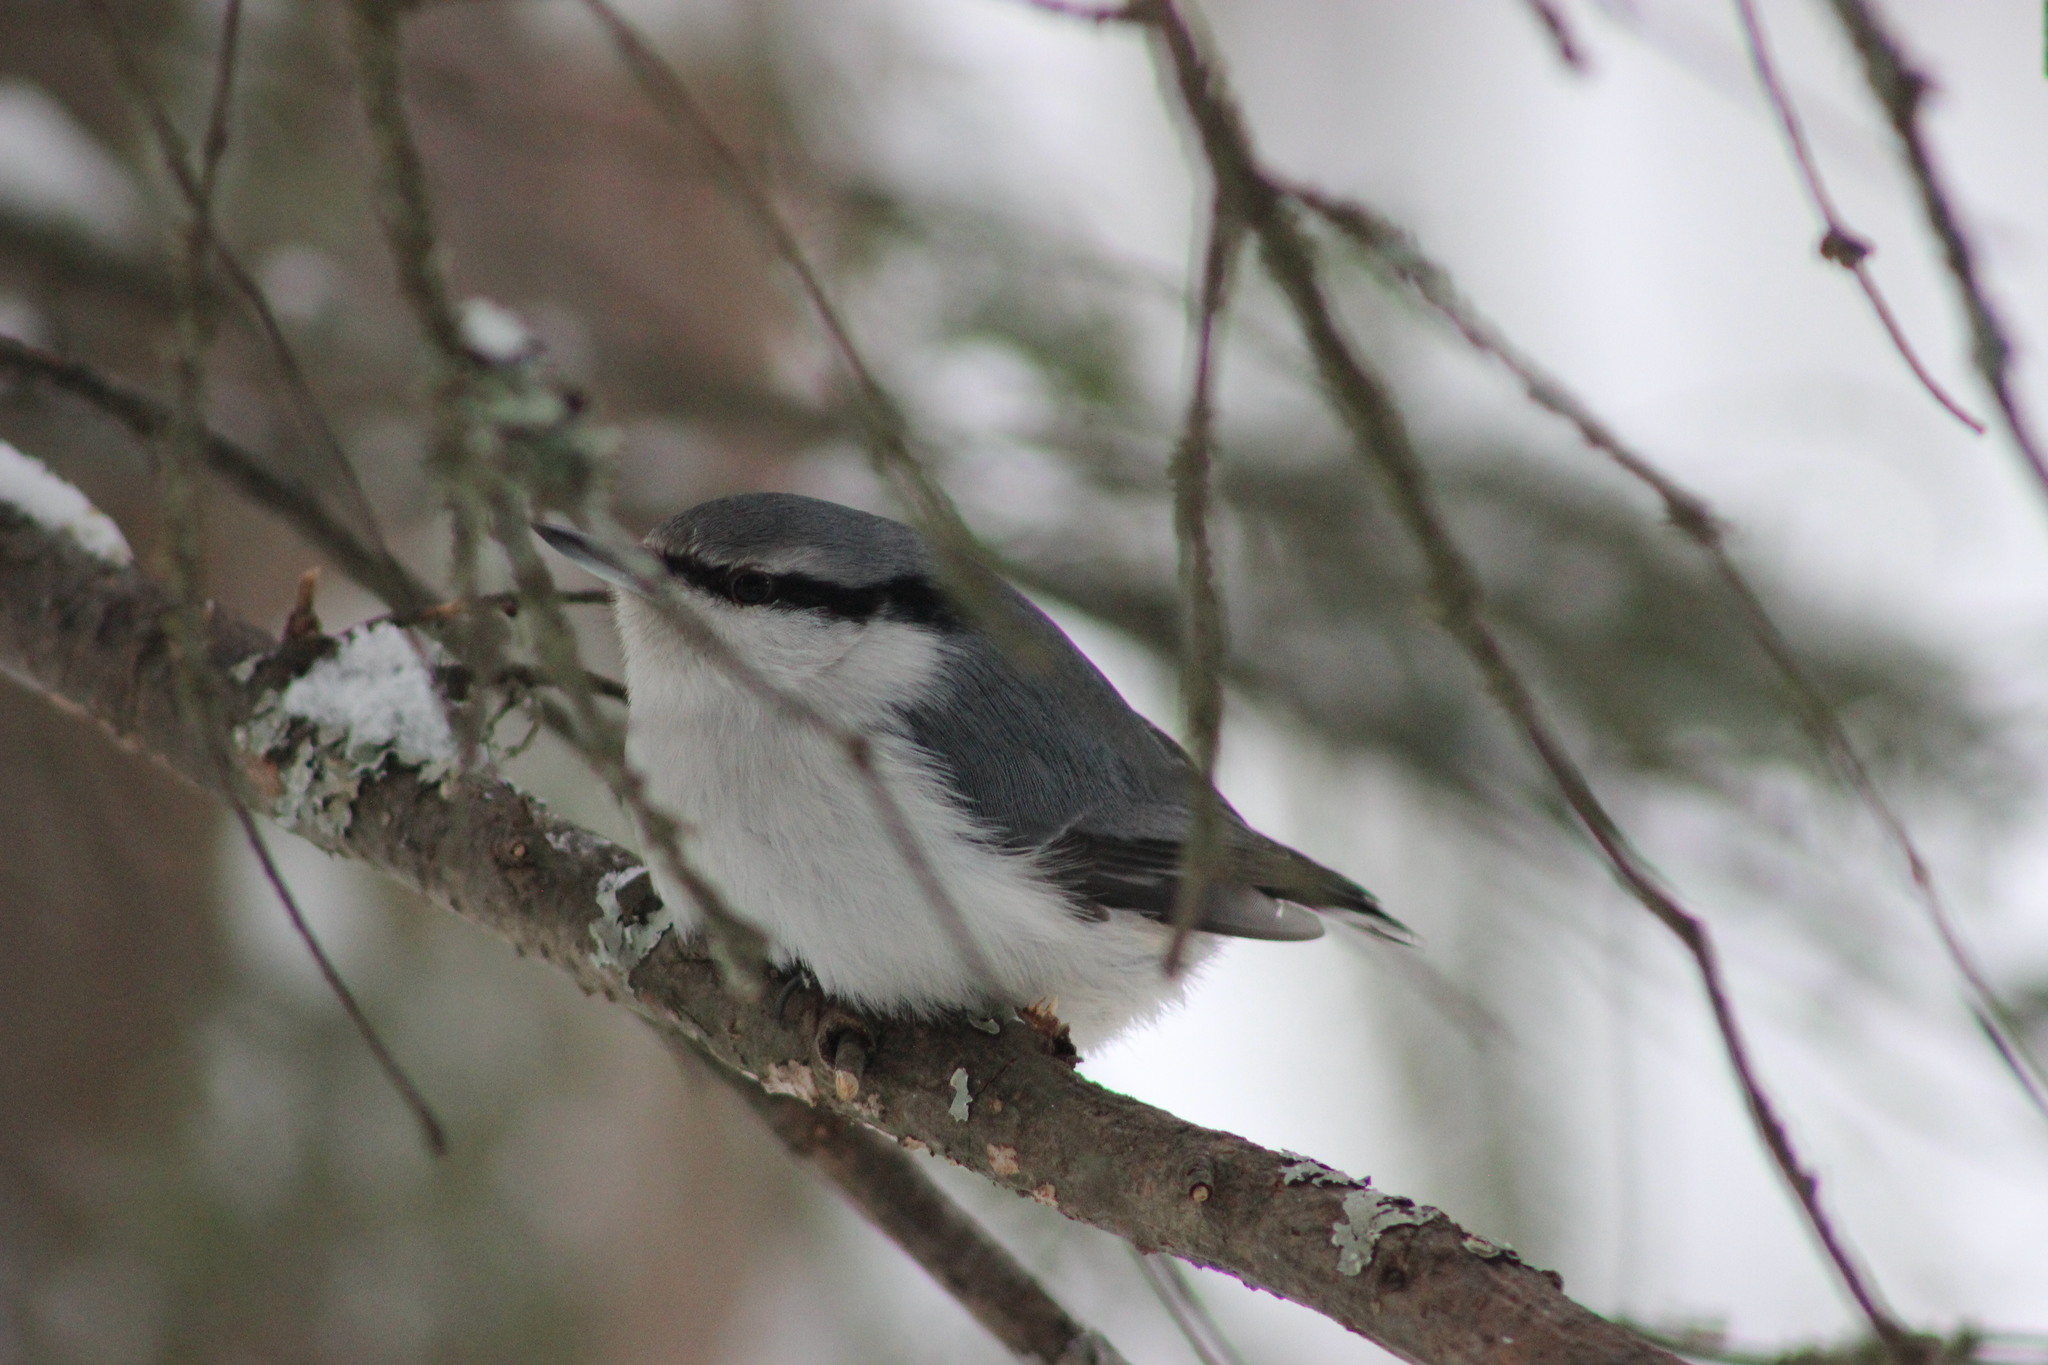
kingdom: Animalia
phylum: Chordata
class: Aves
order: Passeriformes
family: Sittidae
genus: Sitta
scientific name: Sitta europaea
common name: Eurasian nuthatch
